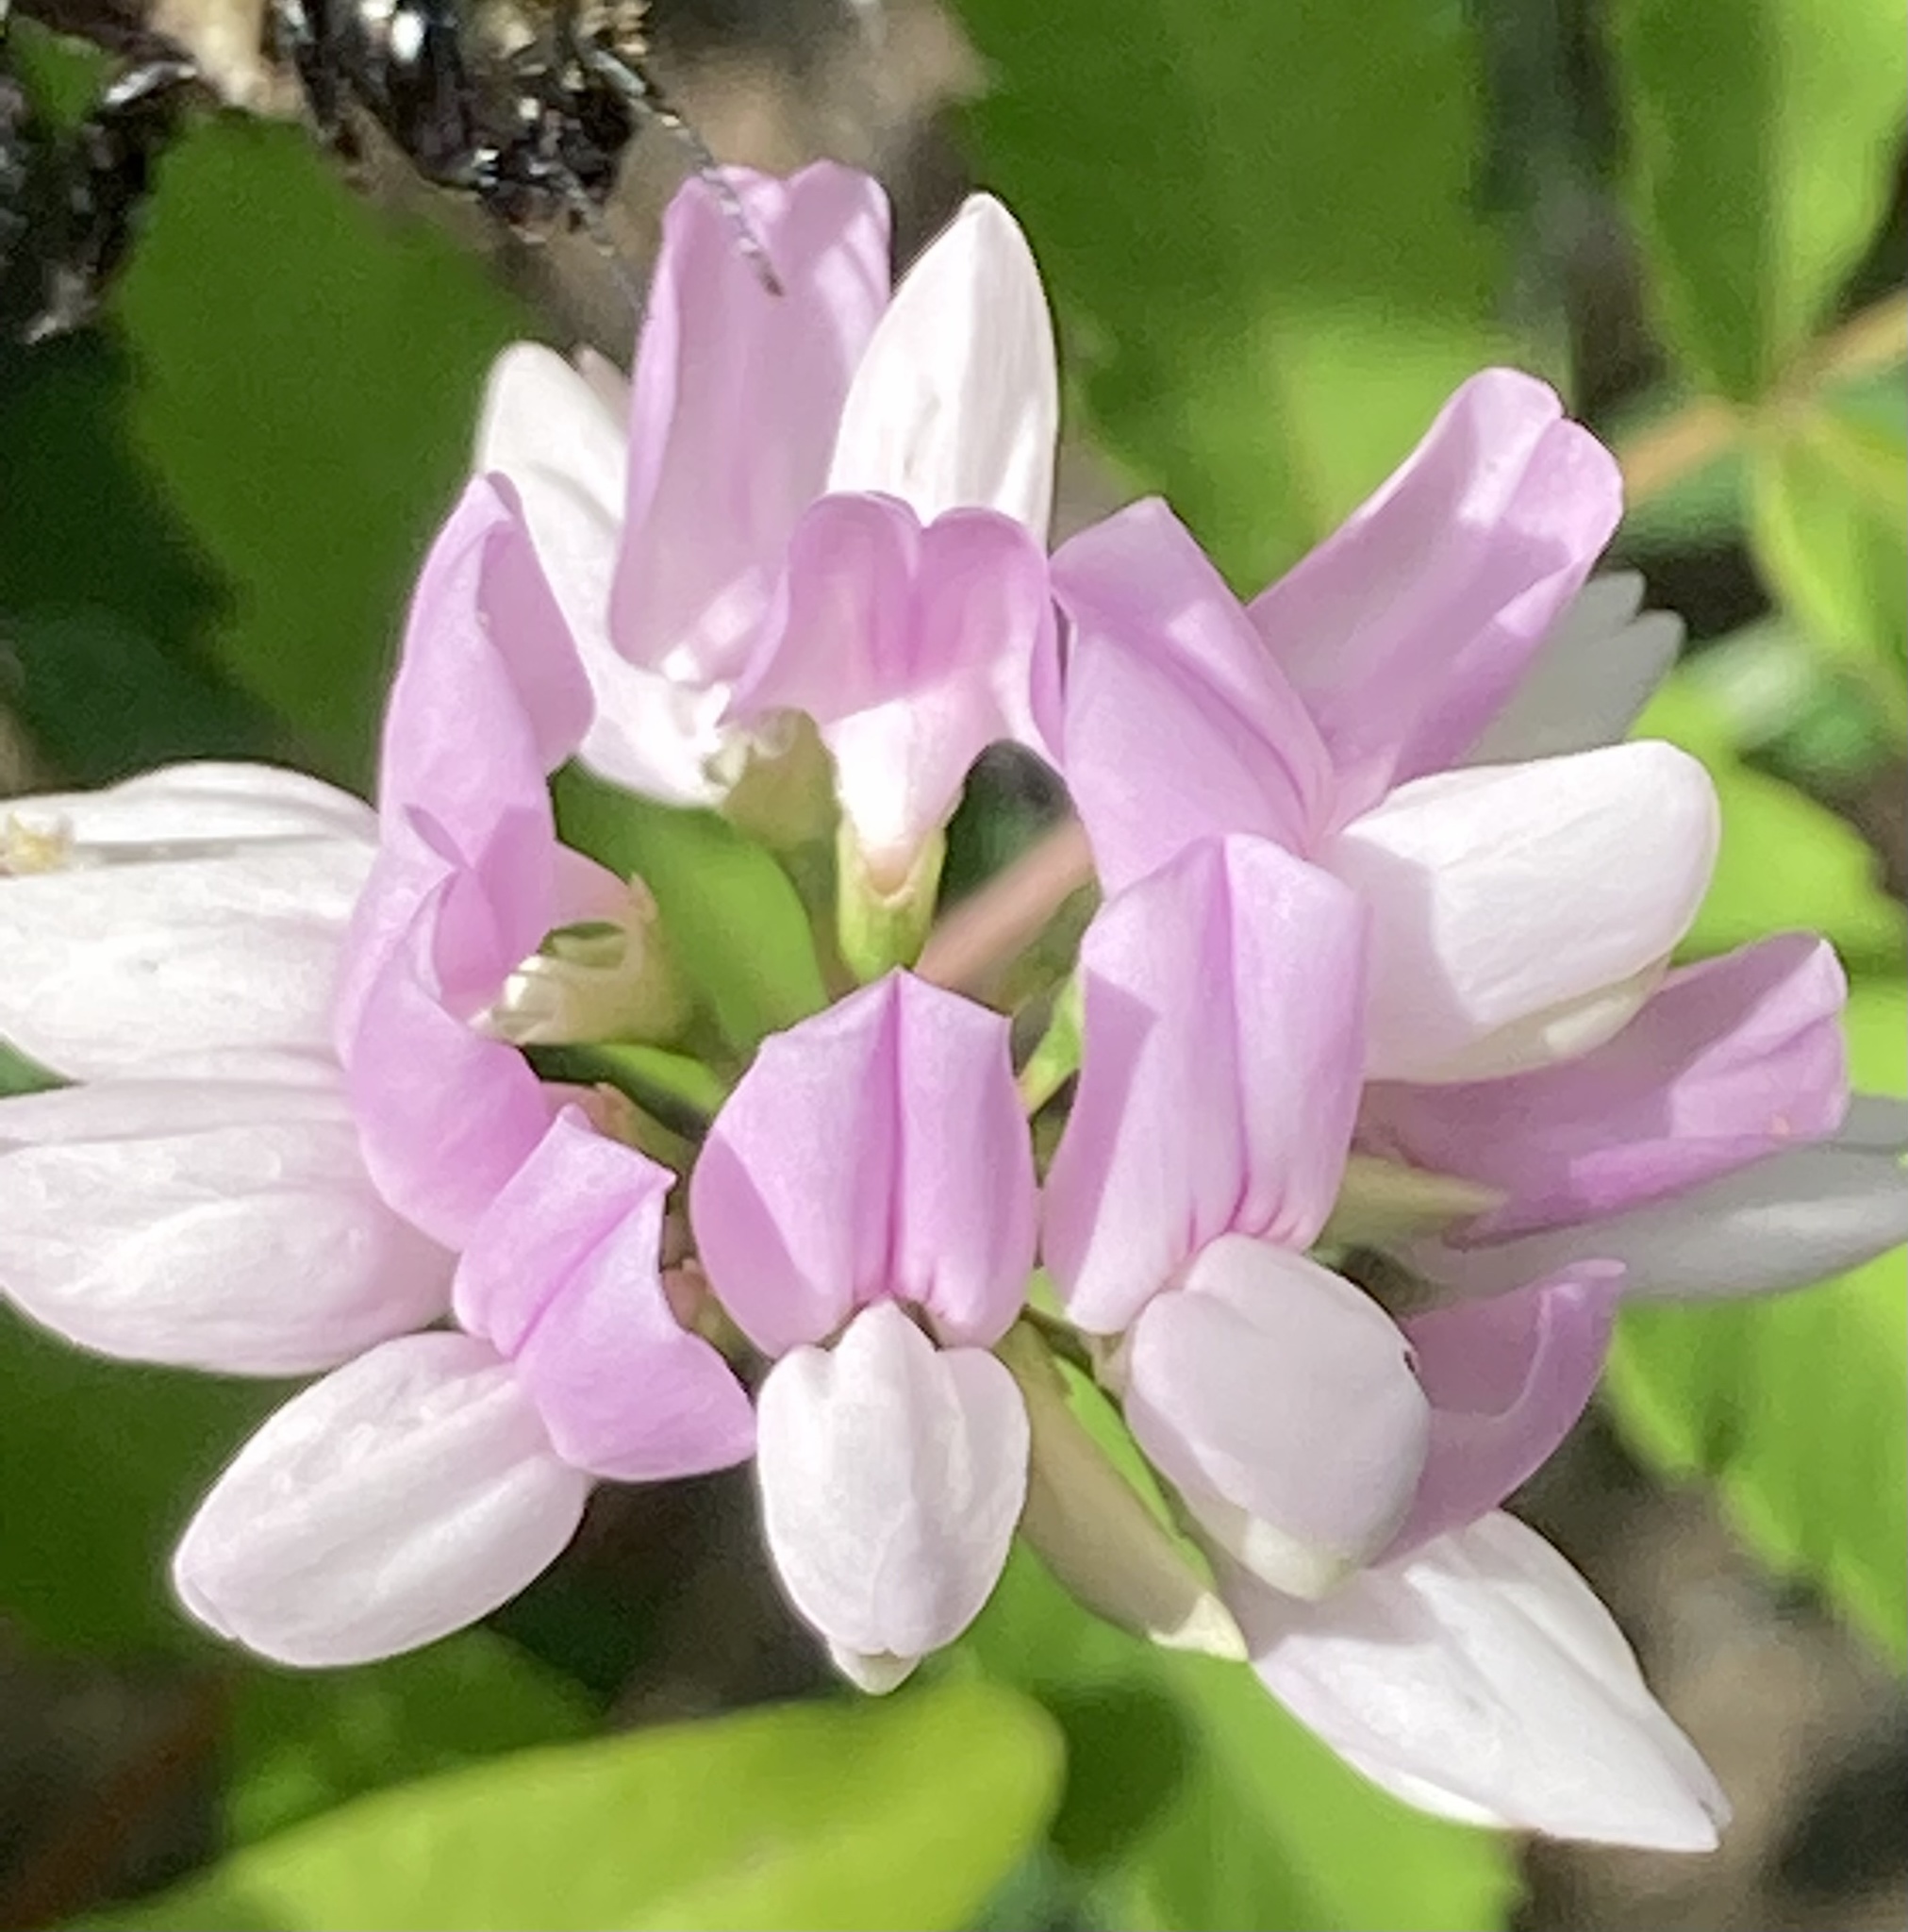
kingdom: Plantae
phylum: Tracheophyta
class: Magnoliopsida
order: Fabales
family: Fabaceae
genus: Coronilla
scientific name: Coronilla varia
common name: Crownvetch
